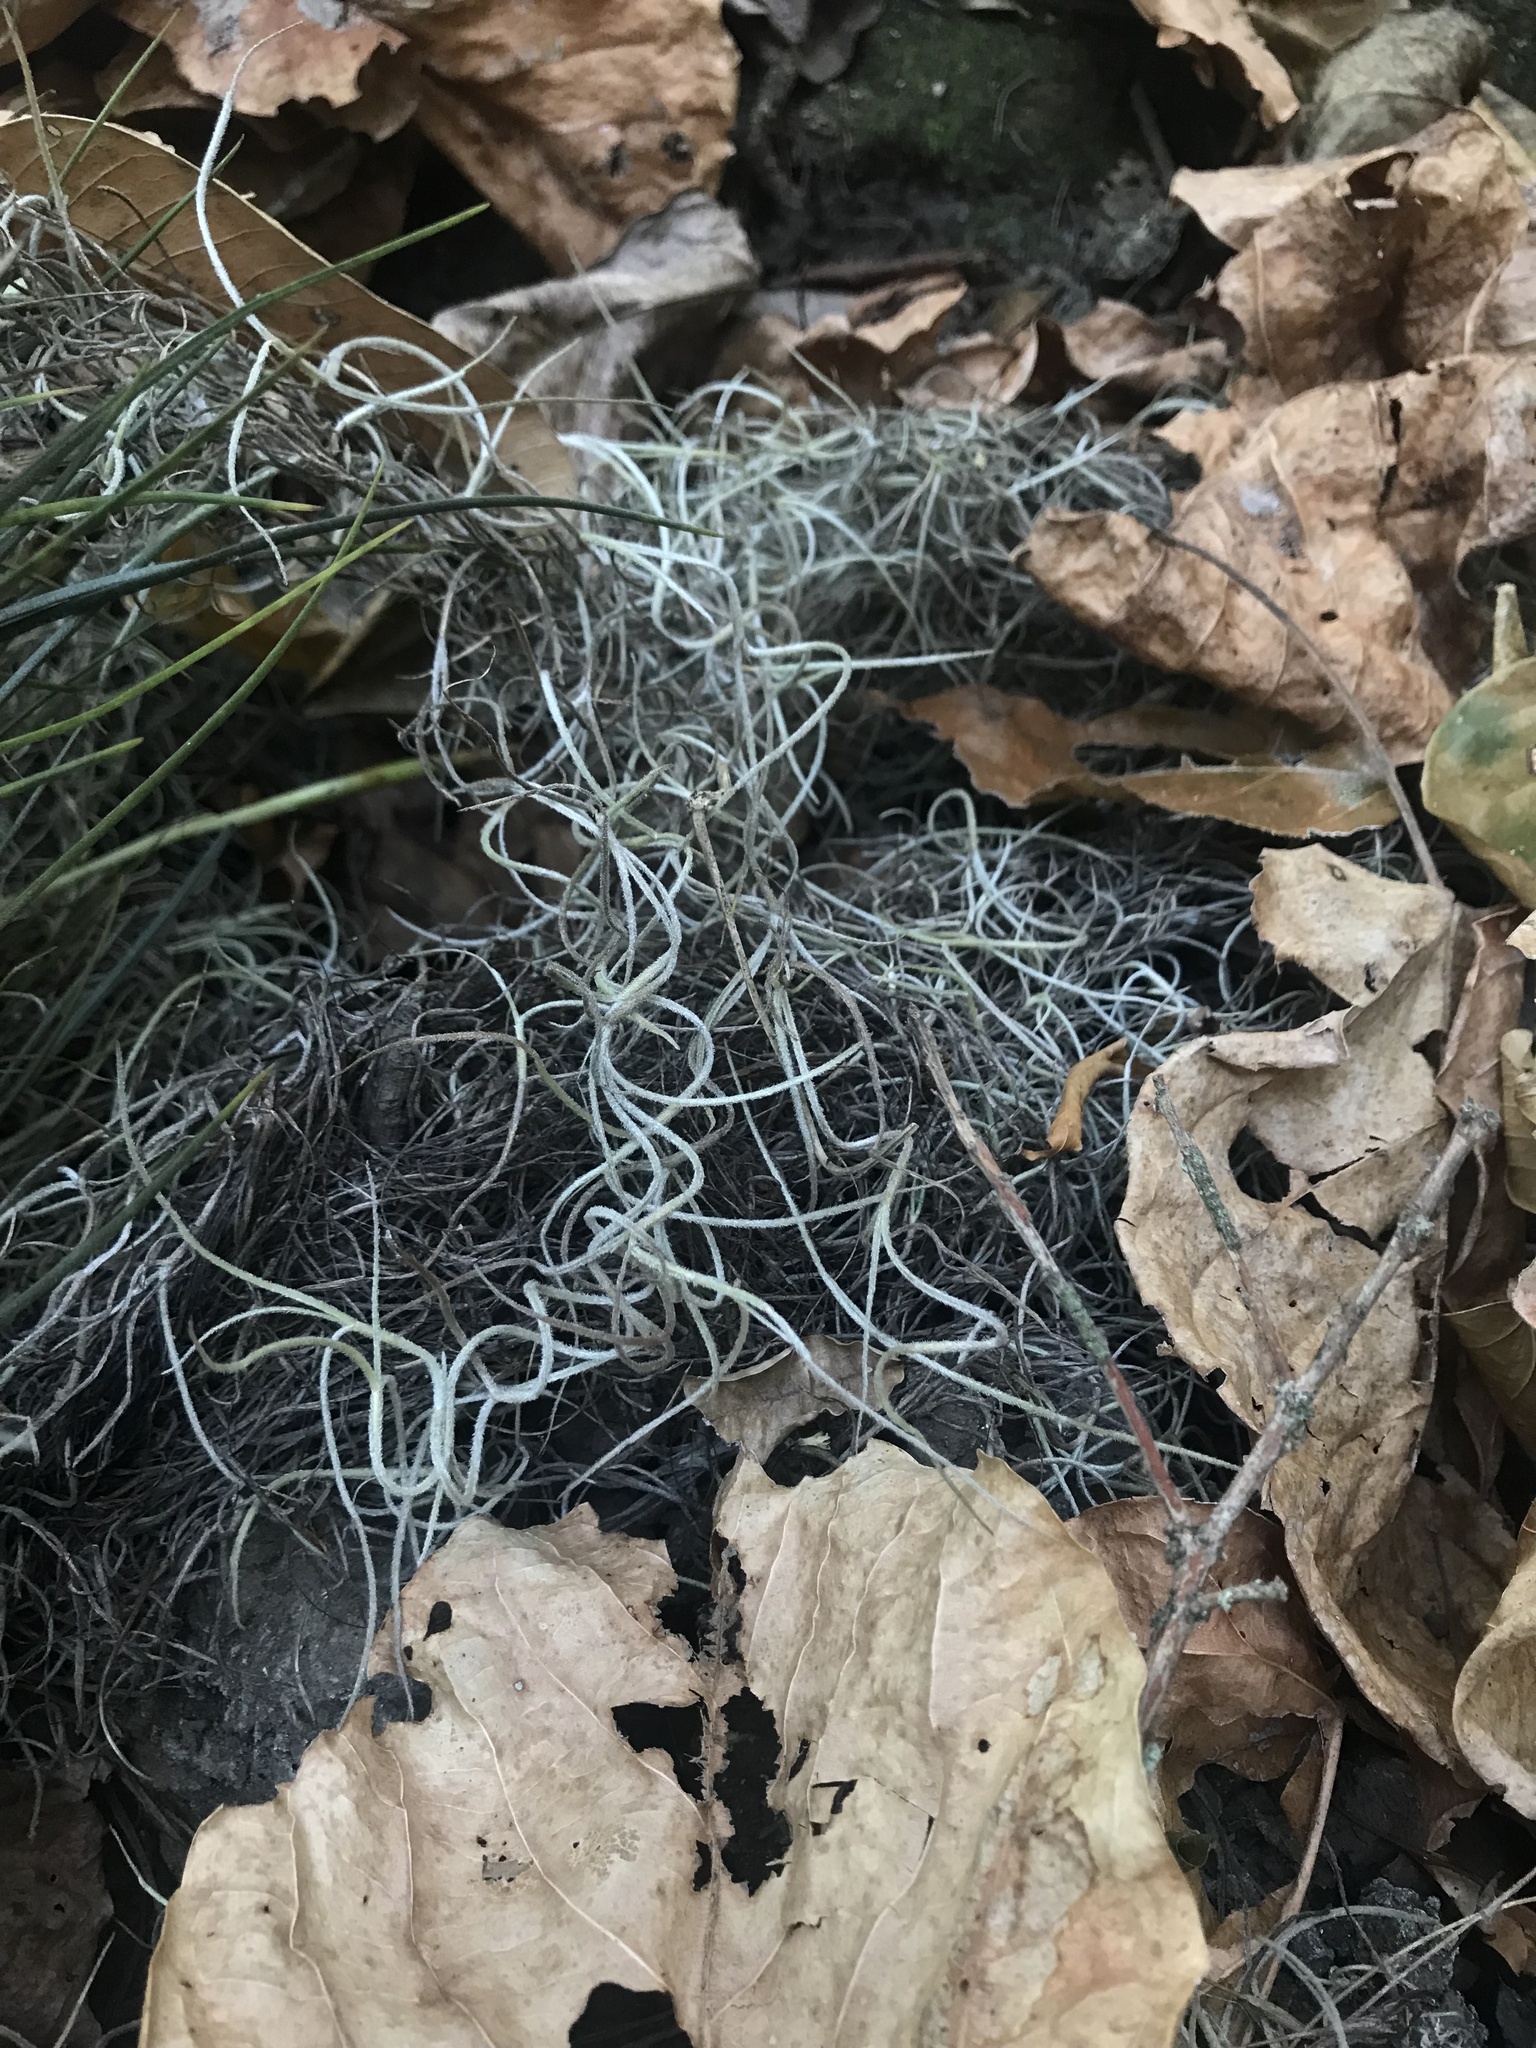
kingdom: Plantae
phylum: Tracheophyta
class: Liliopsida
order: Poales
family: Bromeliaceae
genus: Tillandsia
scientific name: Tillandsia usneoides
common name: Spanish moss
